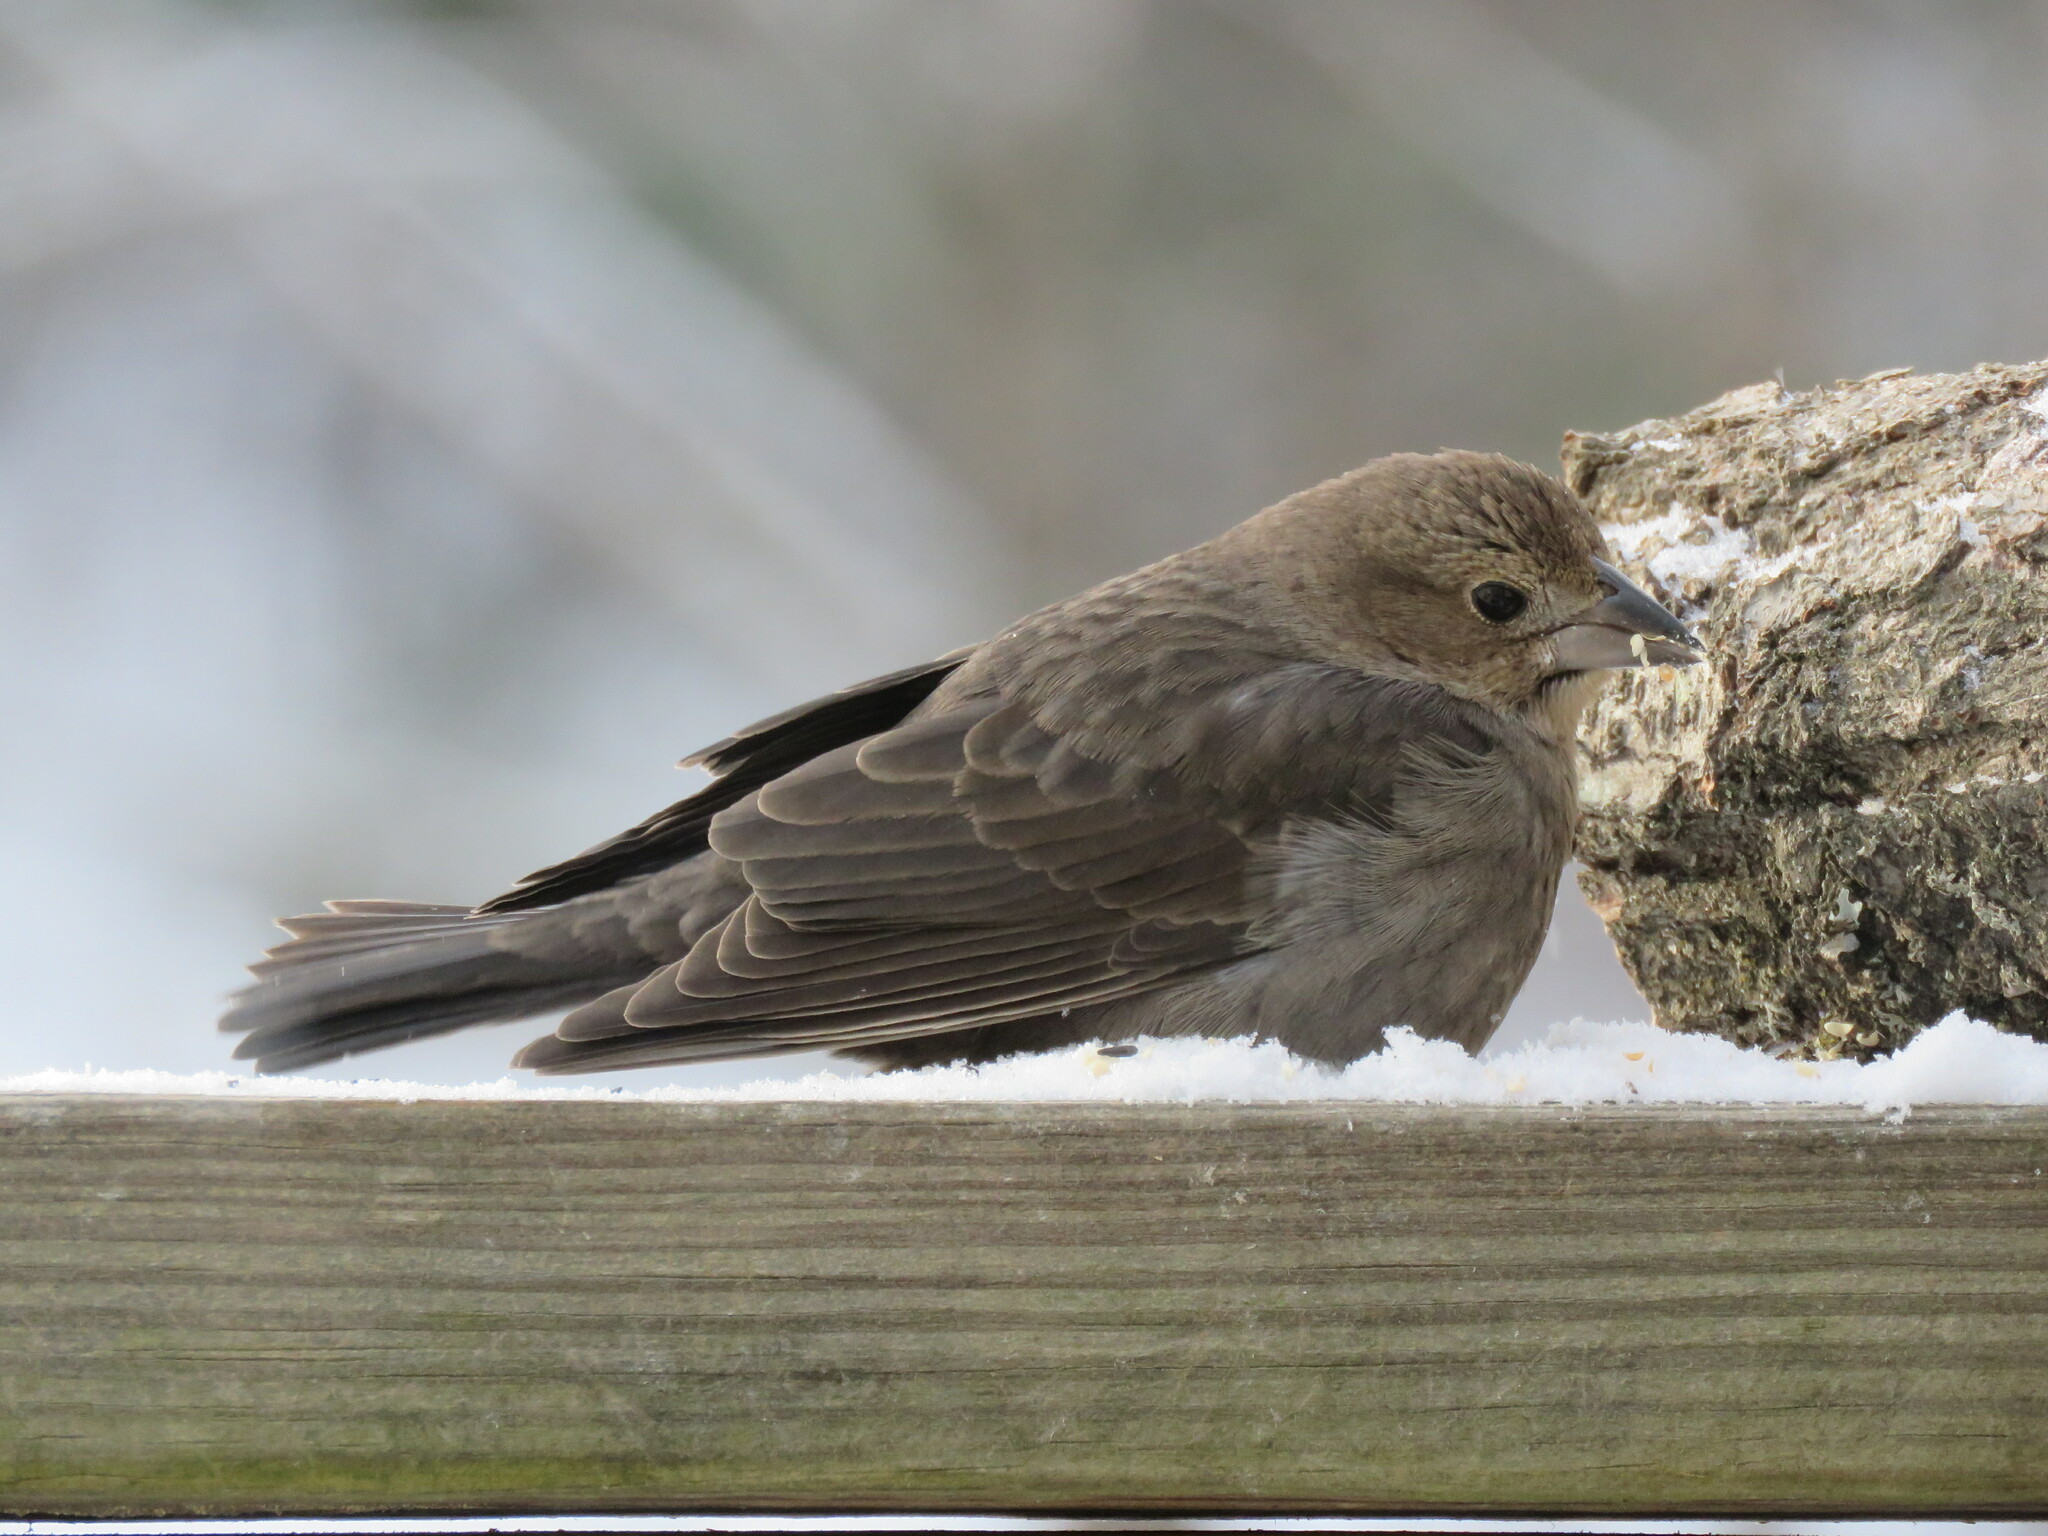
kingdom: Animalia
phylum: Chordata
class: Aves
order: Passeriformes
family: Icteridae
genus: Molothrus
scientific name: Molothrus ater
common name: Brown-headed cowbird
